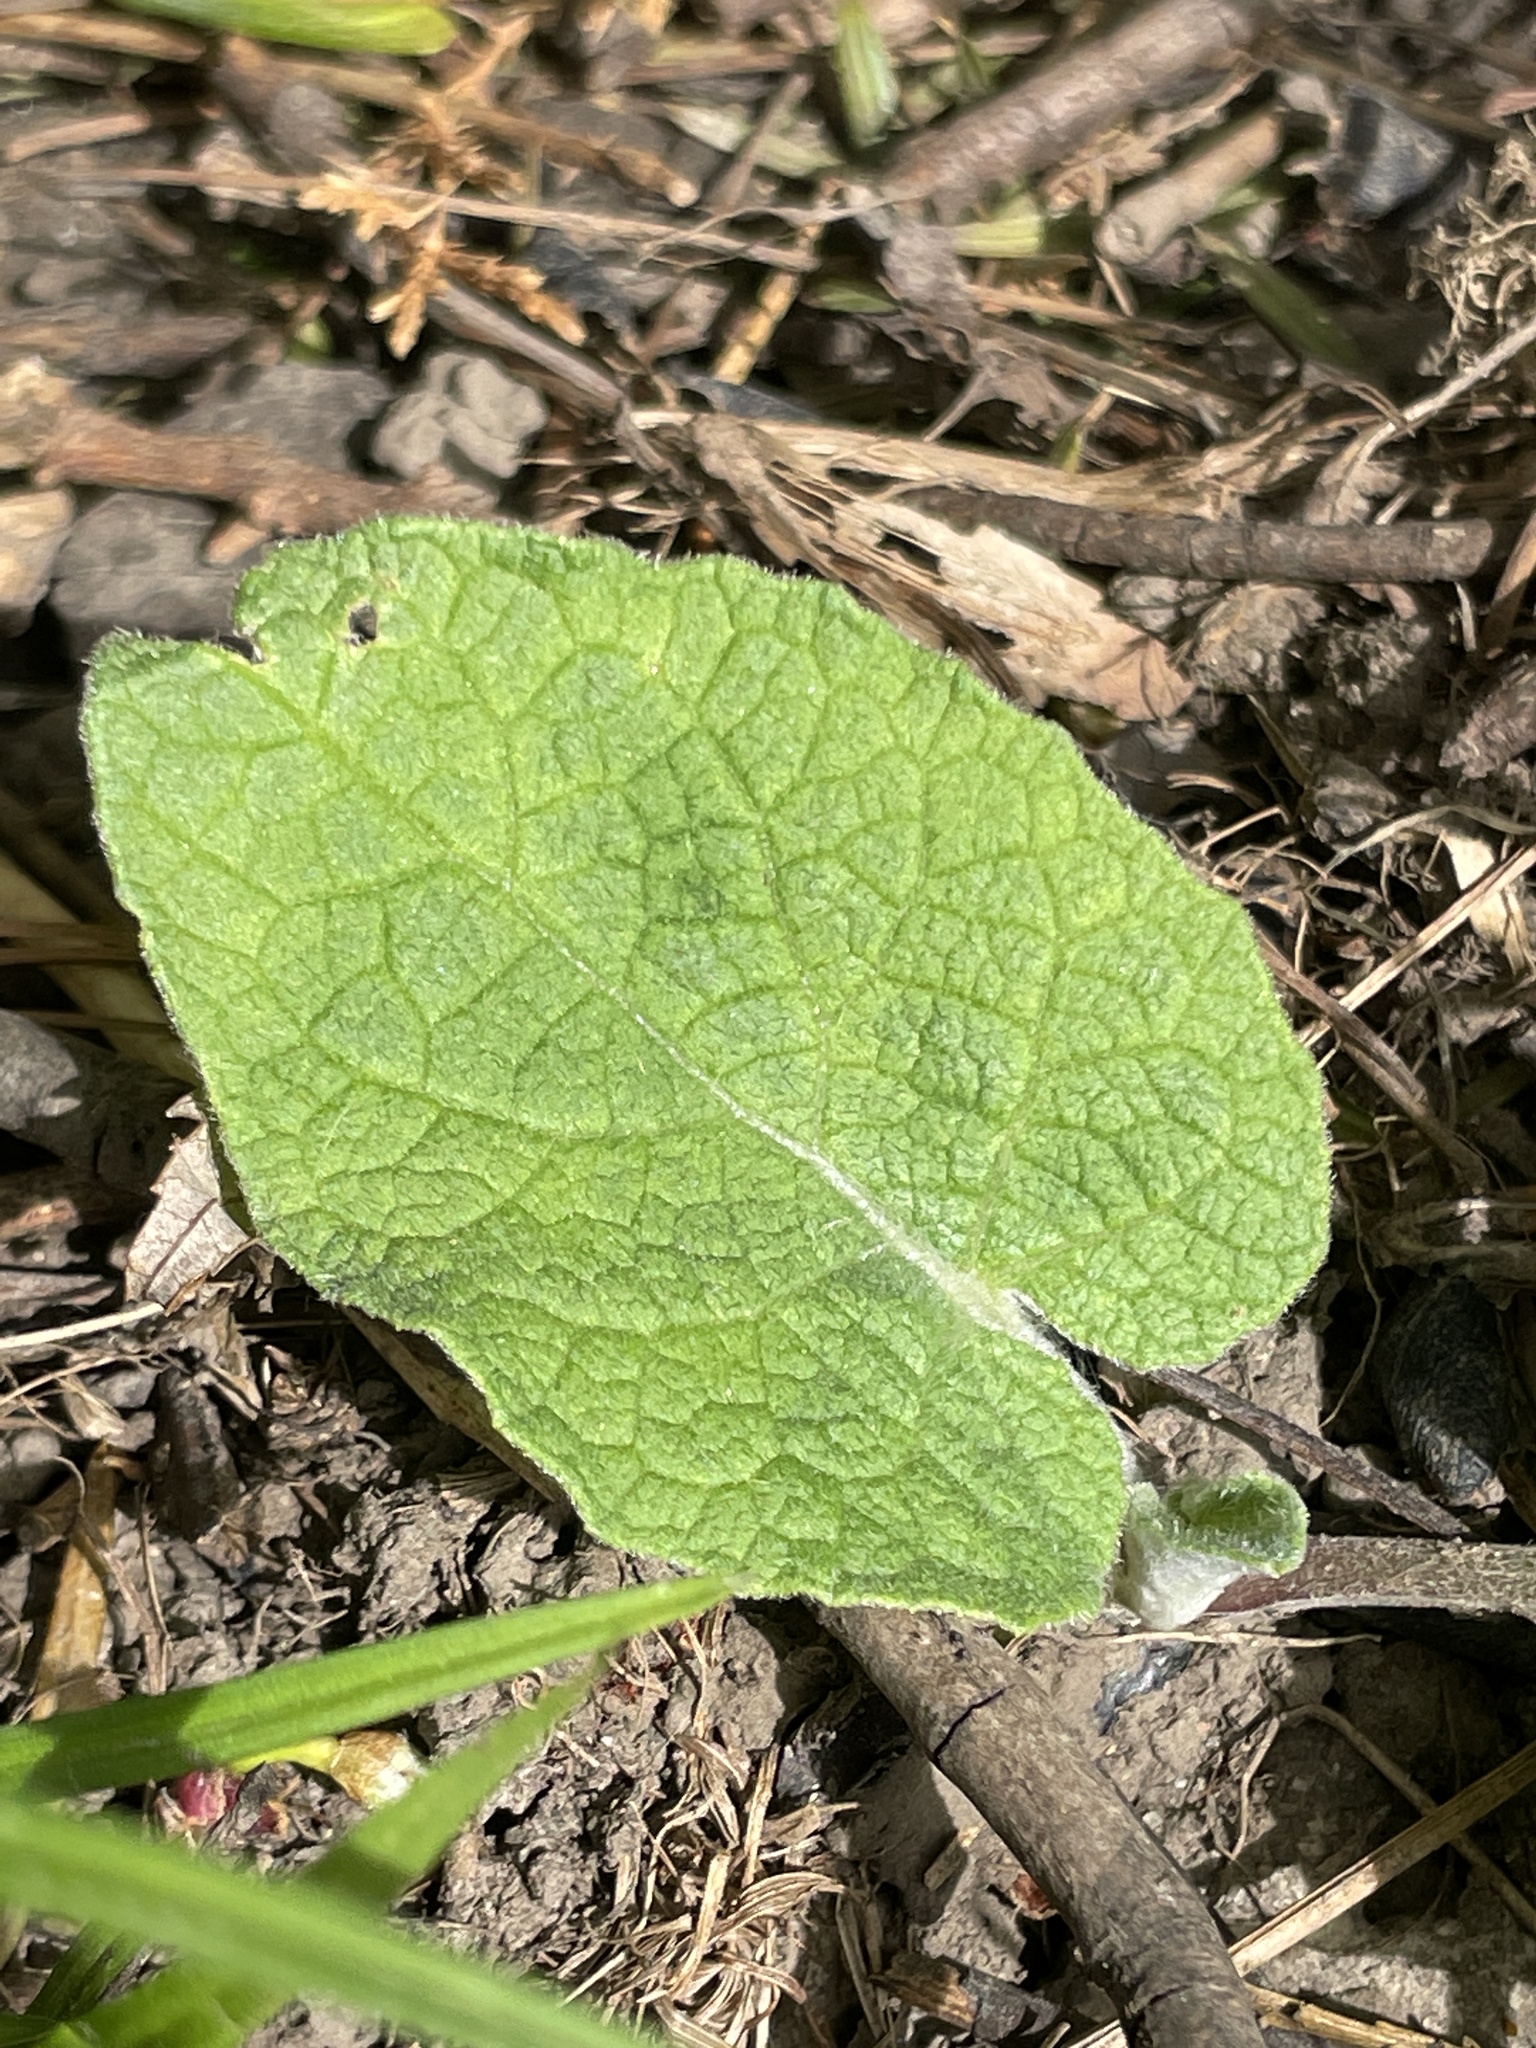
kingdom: Plantae
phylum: Tracheophyta
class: Magnoliopsida
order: Asterales
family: Asteraceae
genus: Arctium
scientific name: Arctium
